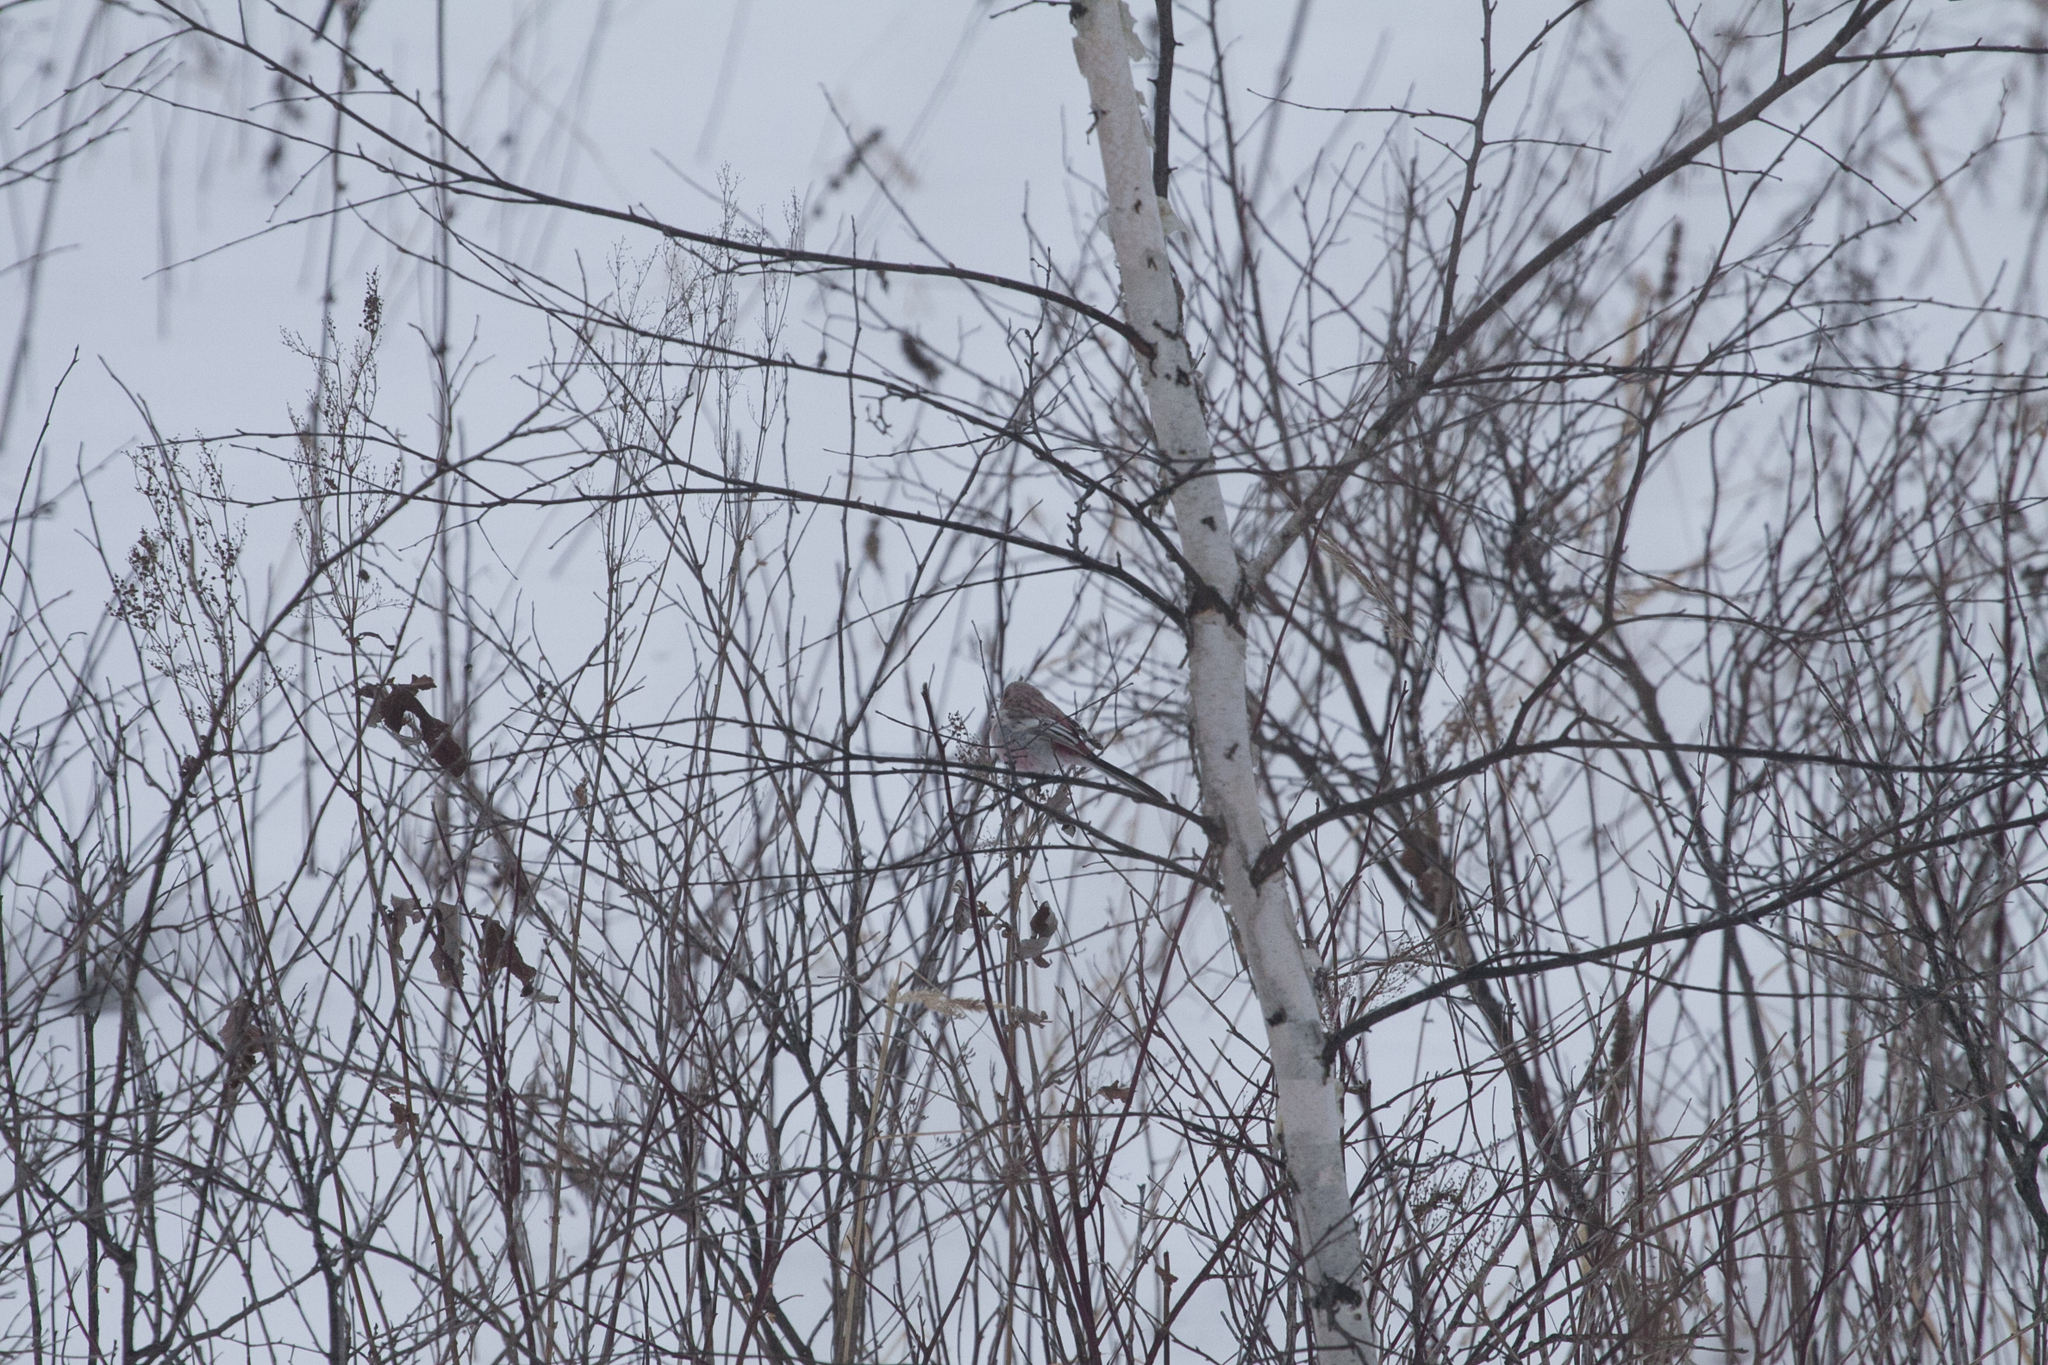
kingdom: Animalia
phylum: Chordata
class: Aves
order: Passeriformes
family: Fringillidae
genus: Carpodacus
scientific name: Carpodacus sibiricus
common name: Long-tailed rosefinch
